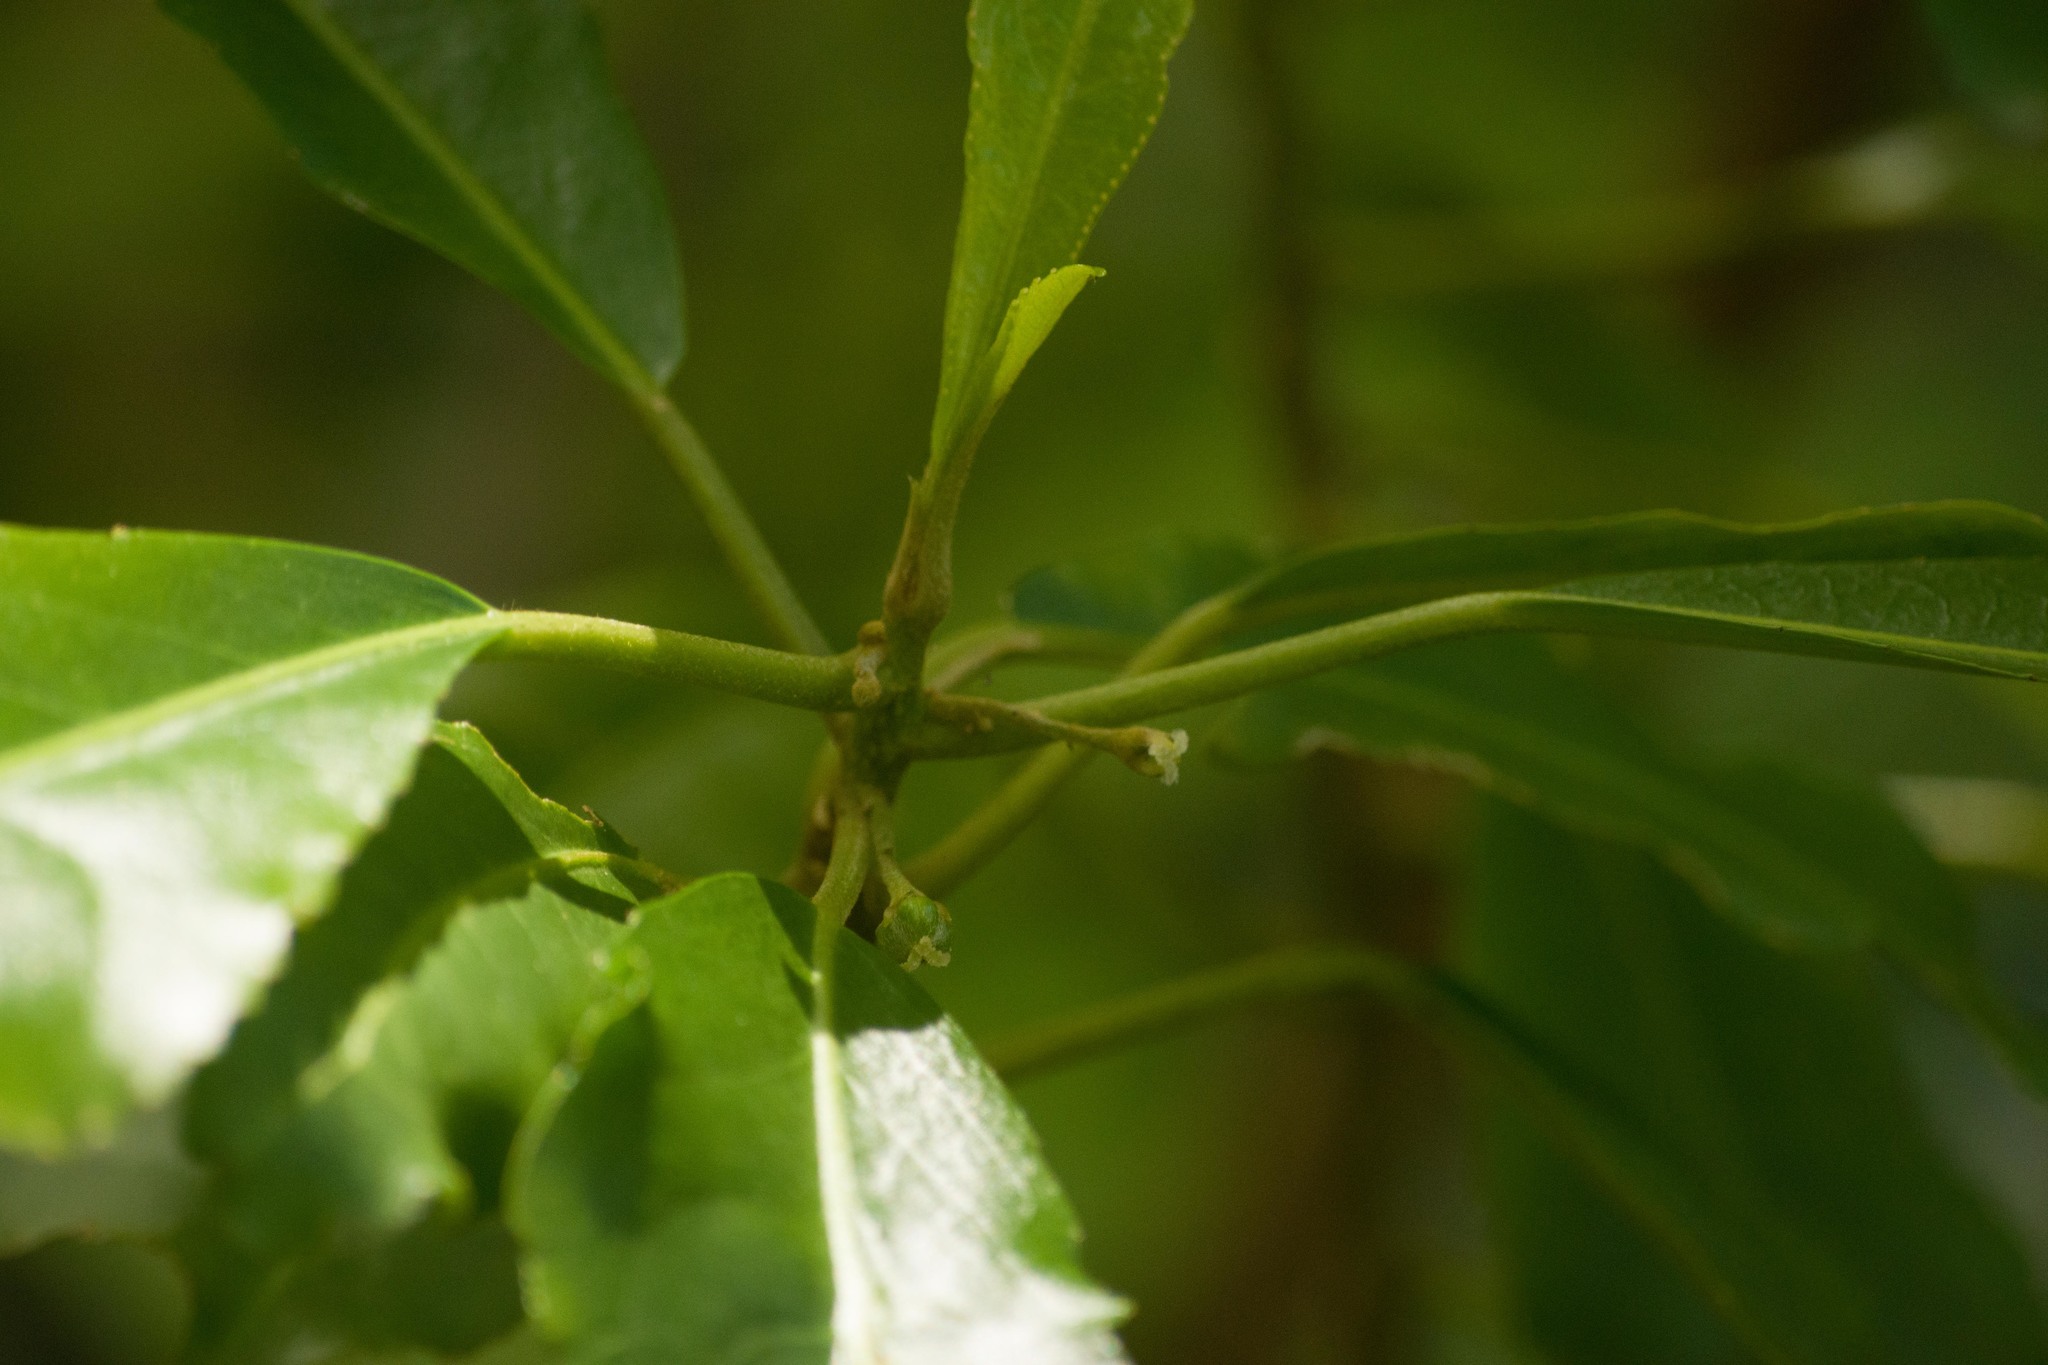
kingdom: Plantae
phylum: Tracheophyta
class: Magnoliopsida
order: Malpighiales
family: Euphorbiaceae
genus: Claoxylon
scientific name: Claoxylon sandwicense
